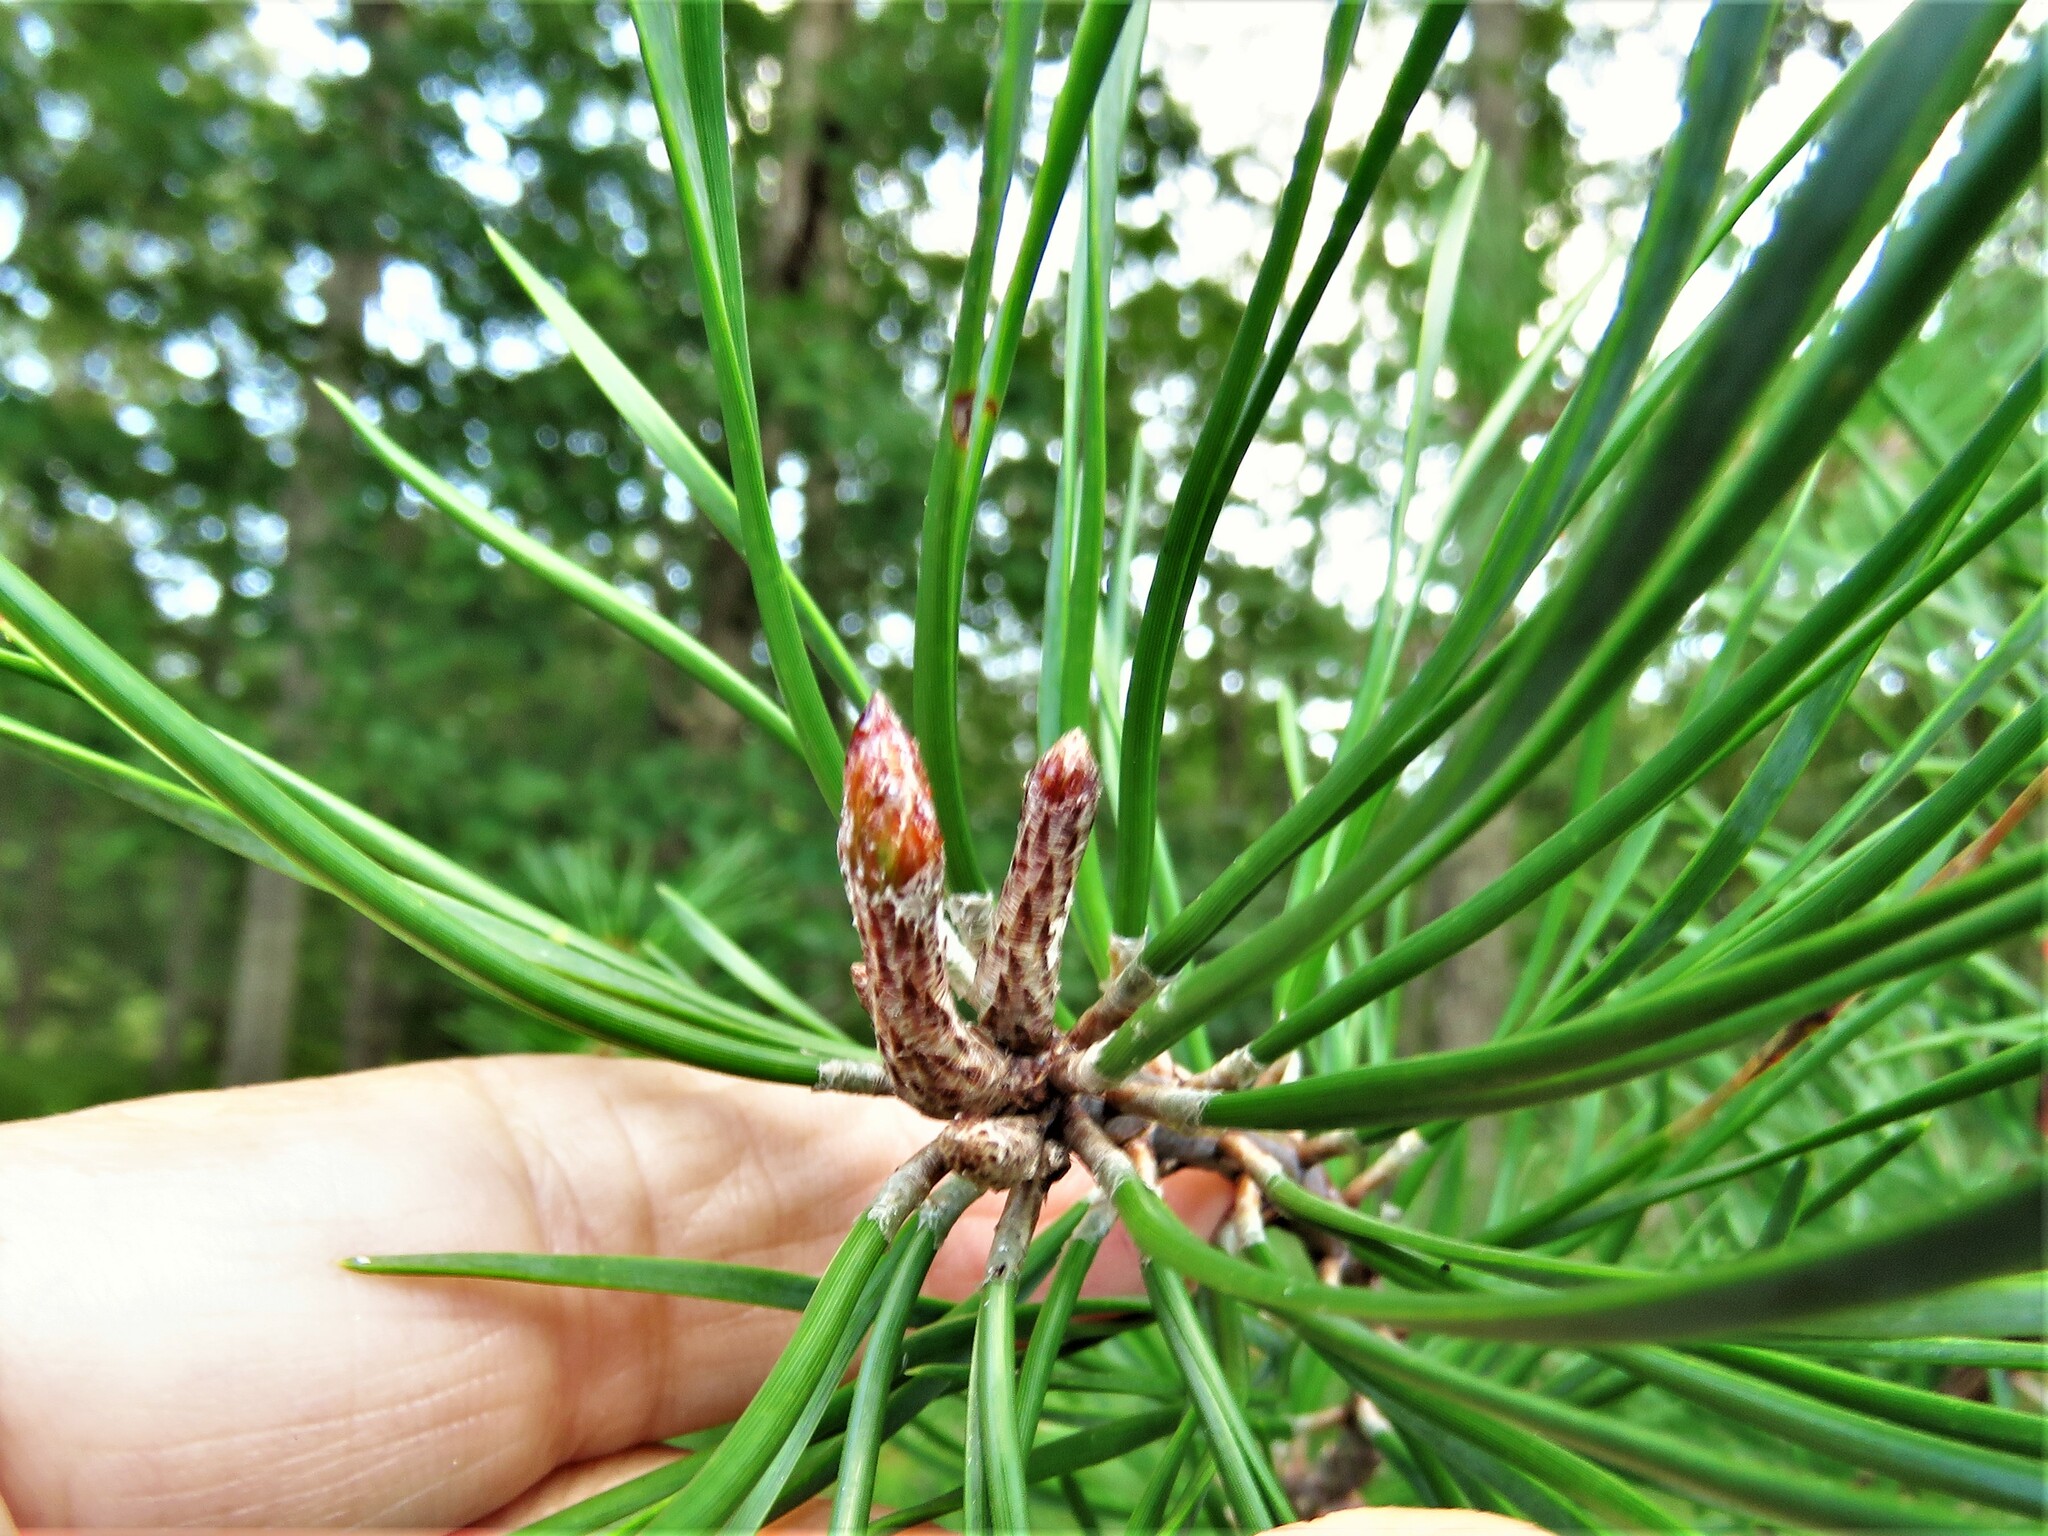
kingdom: Plantae
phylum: Tracheophyta
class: Pinopsida
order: Pinales
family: Pinaceae
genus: Pinus
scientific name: Pinus virginiana
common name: Scrub pine
